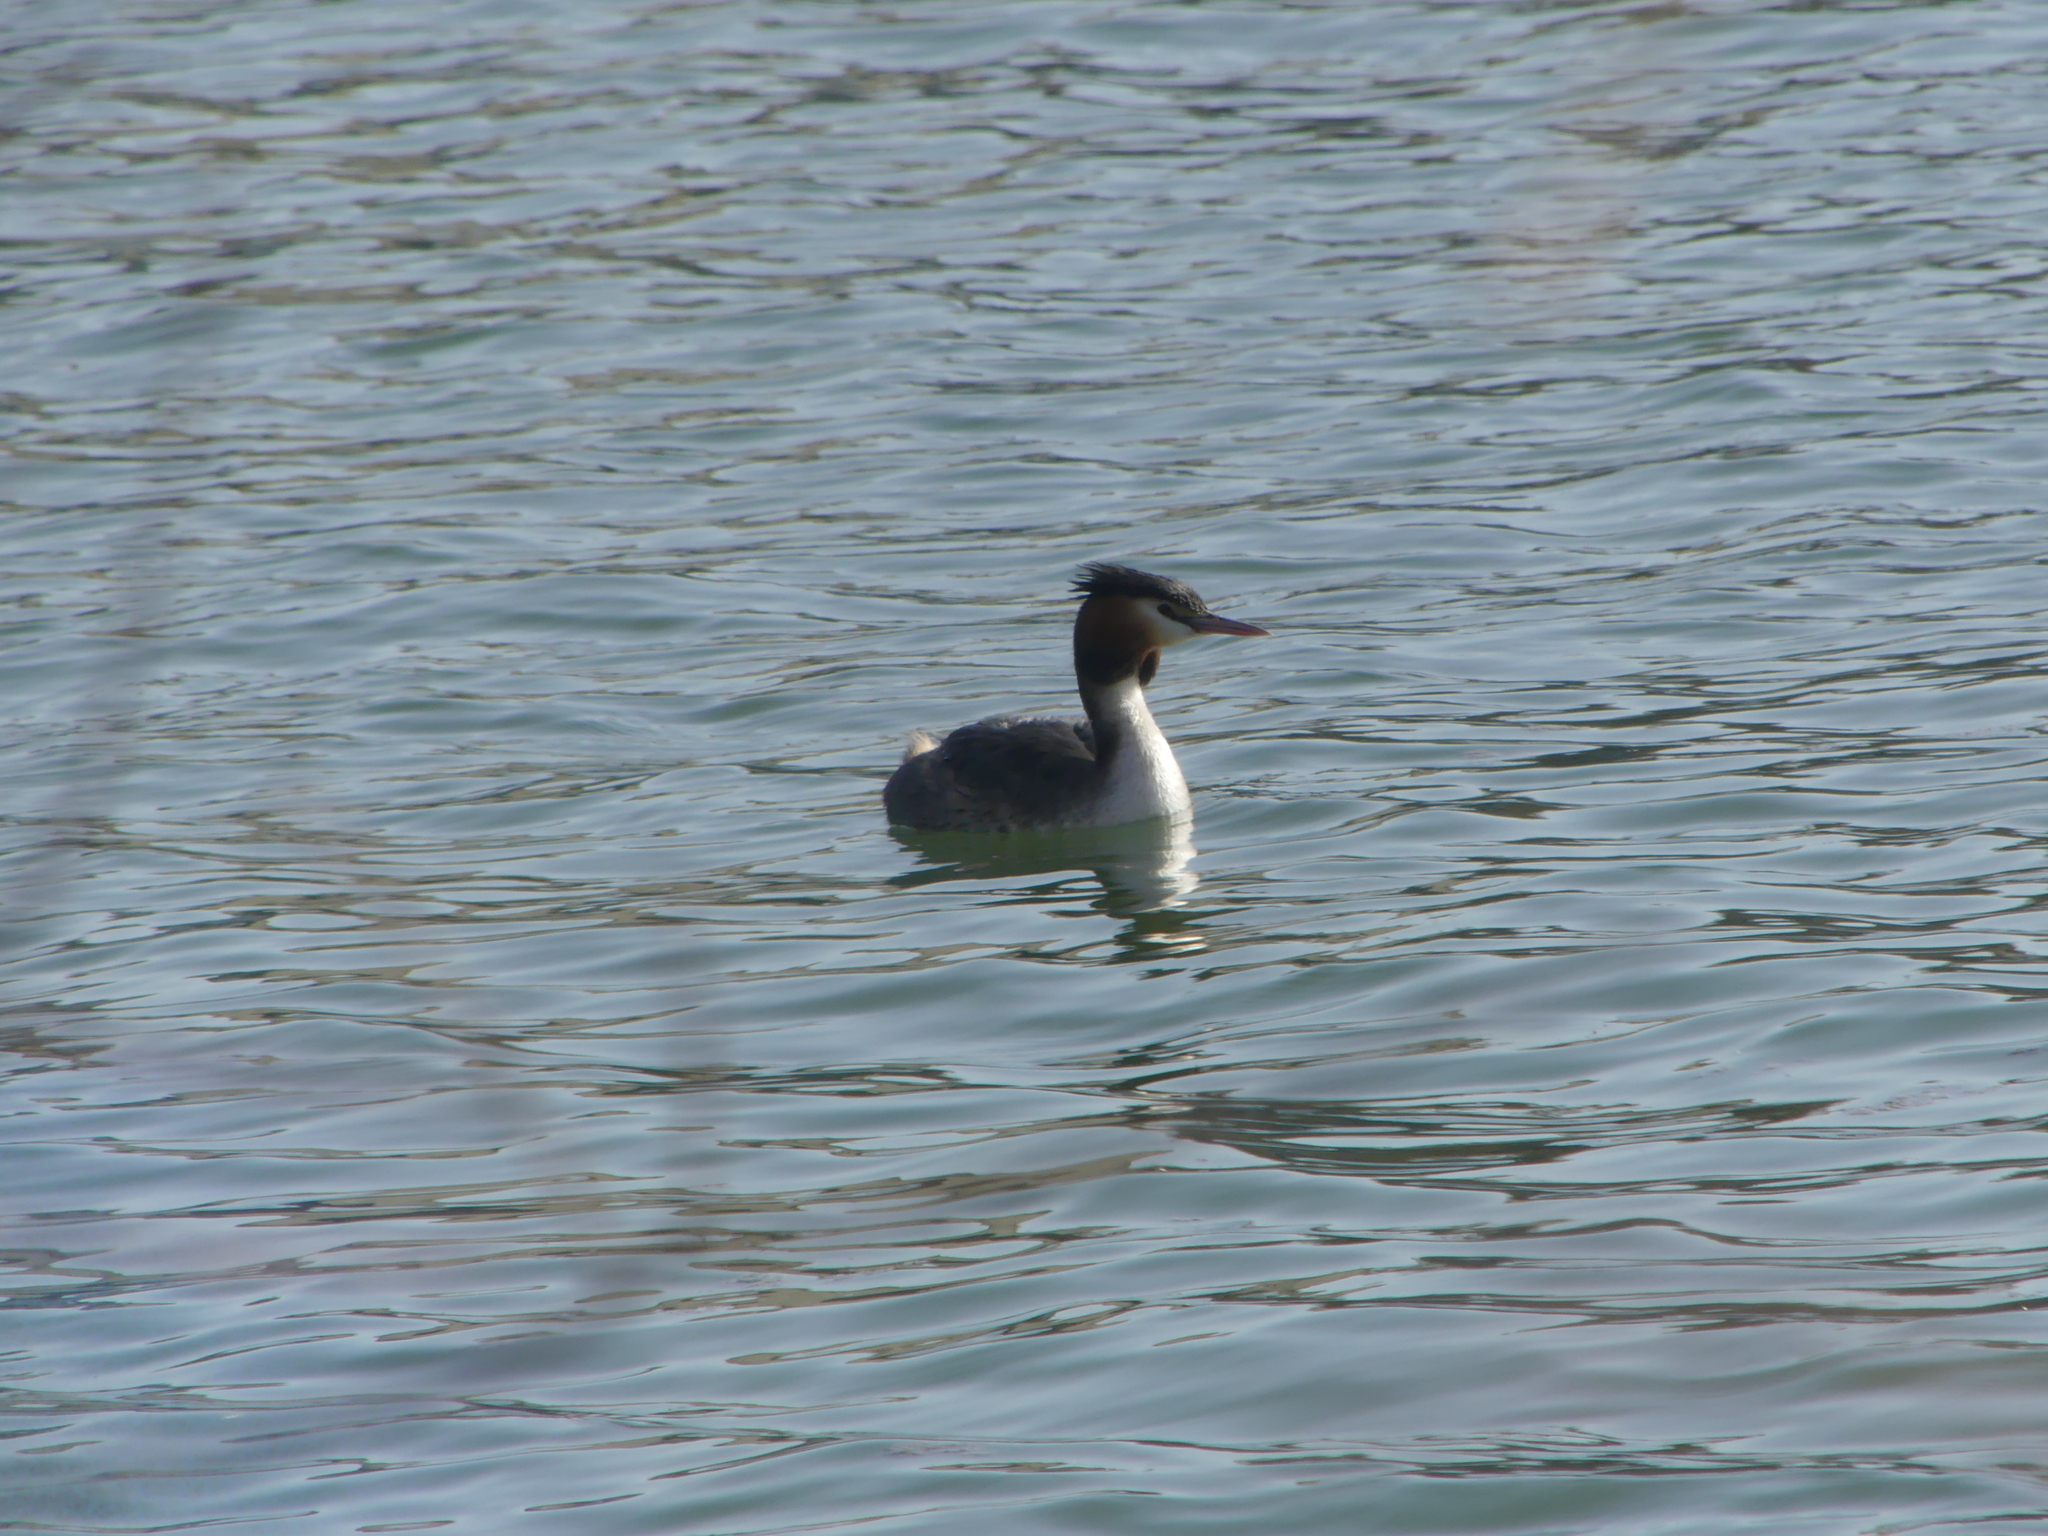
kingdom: Animalia
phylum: Chordata
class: Aves
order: Podicipediformes
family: Podicipedidae
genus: Podiceps
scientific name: Podiceps cristatus
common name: Great crested grebe
